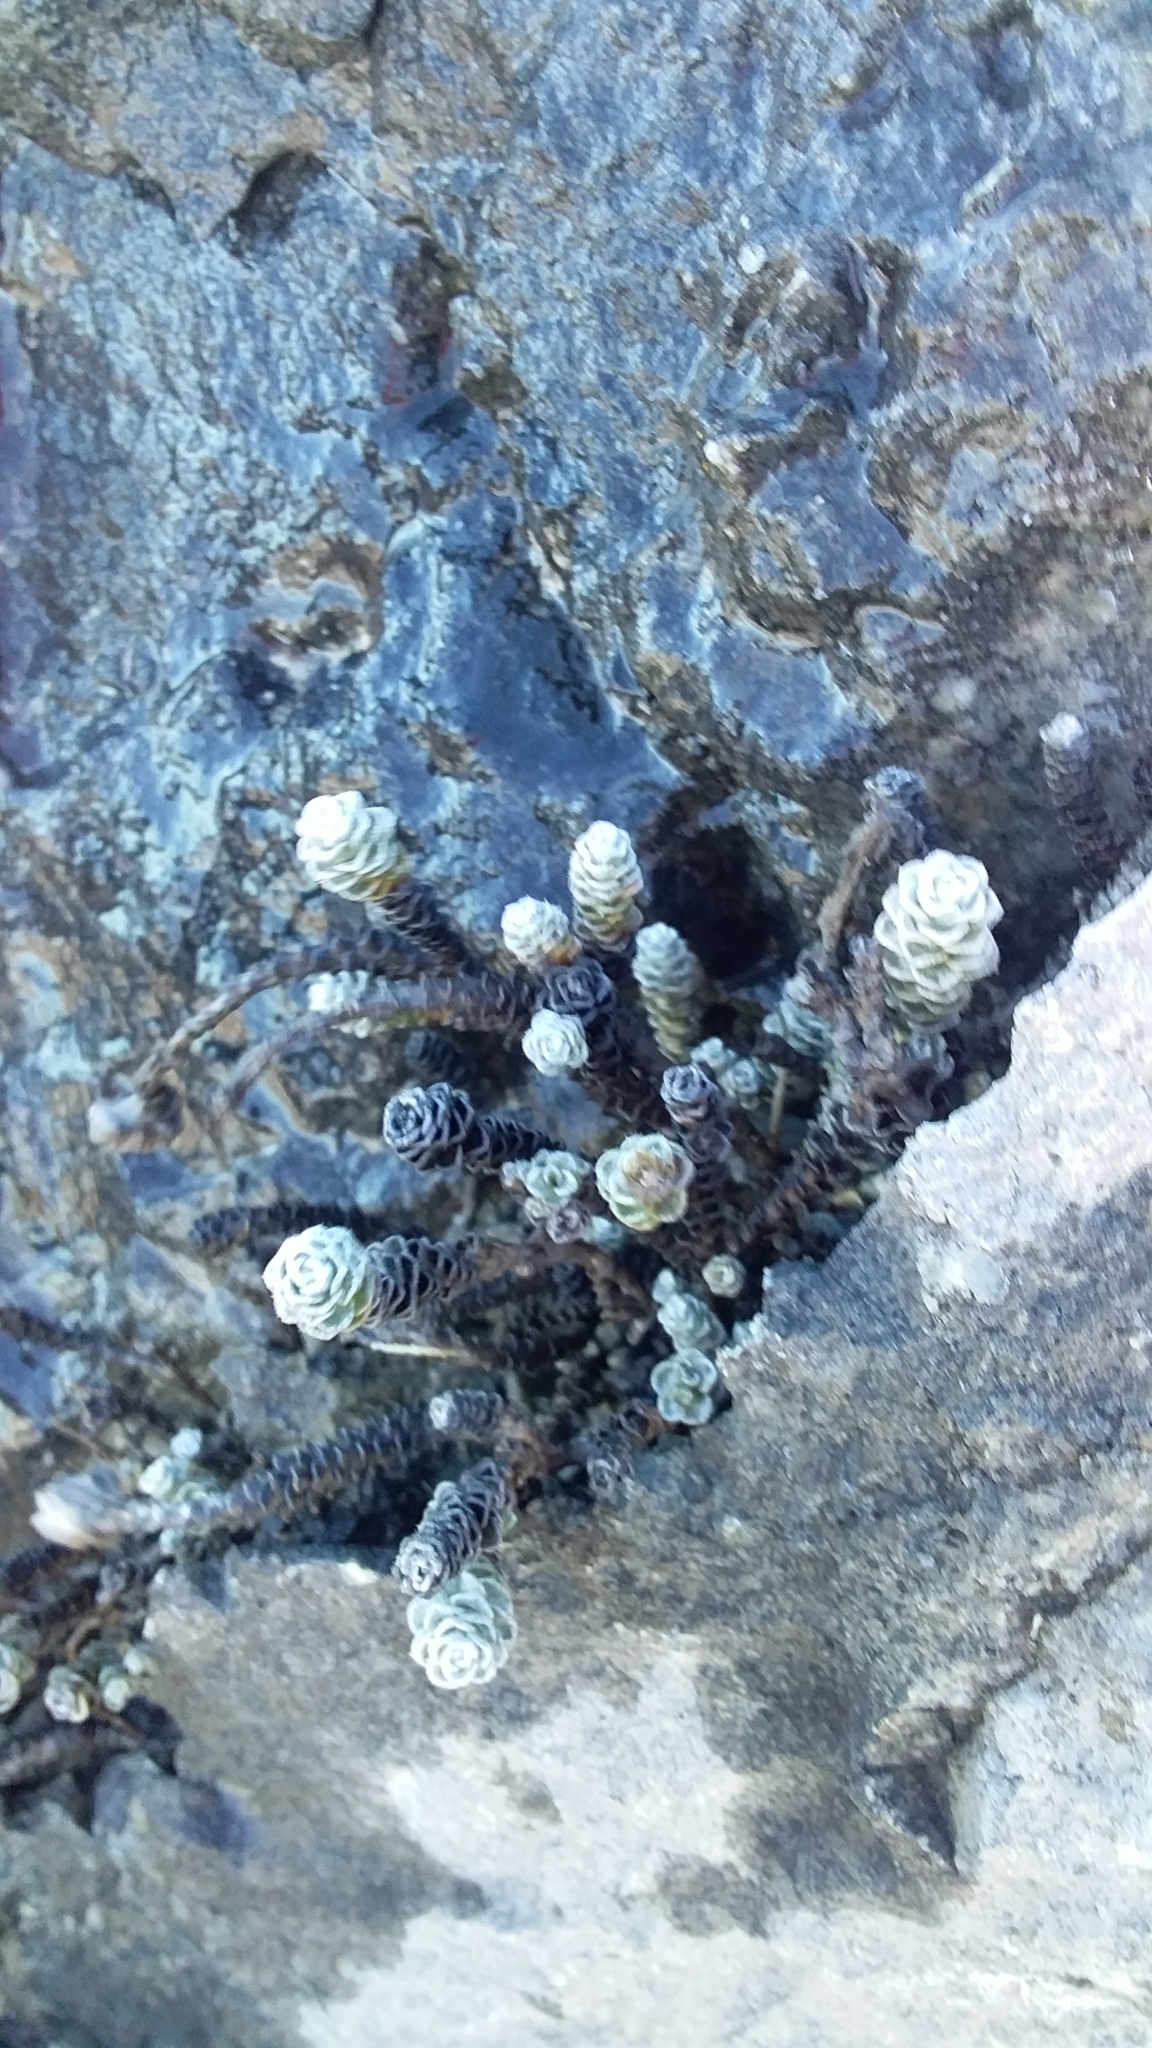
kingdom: Plantae
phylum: Tracheophyta
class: Magnoliopsida
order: Asterales
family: Asteraceae
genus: Leucogenes
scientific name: Leucogenes grandiceps
